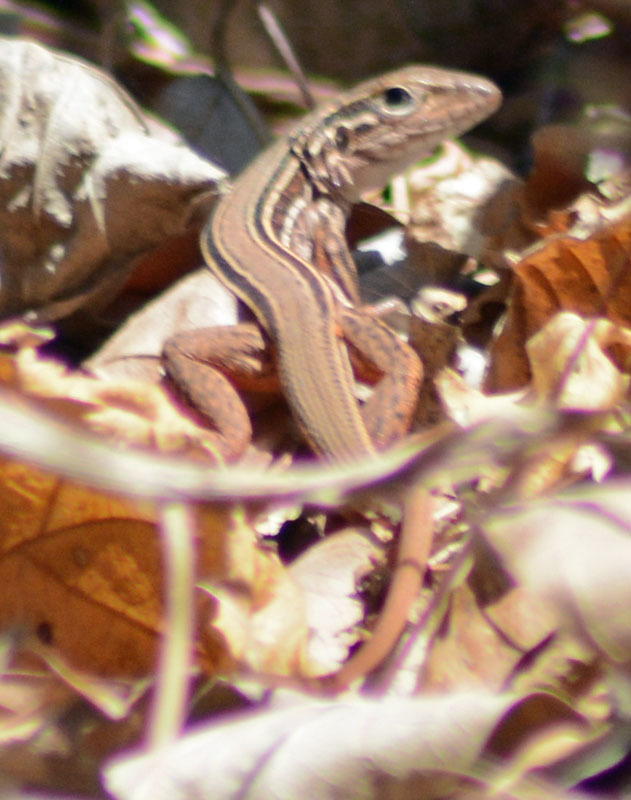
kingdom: Animalia
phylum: Chordata
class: Squamata
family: Teiidae
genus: Aspidoscelis
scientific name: Aspidoscelis costatus
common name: Western mexico whiptail
